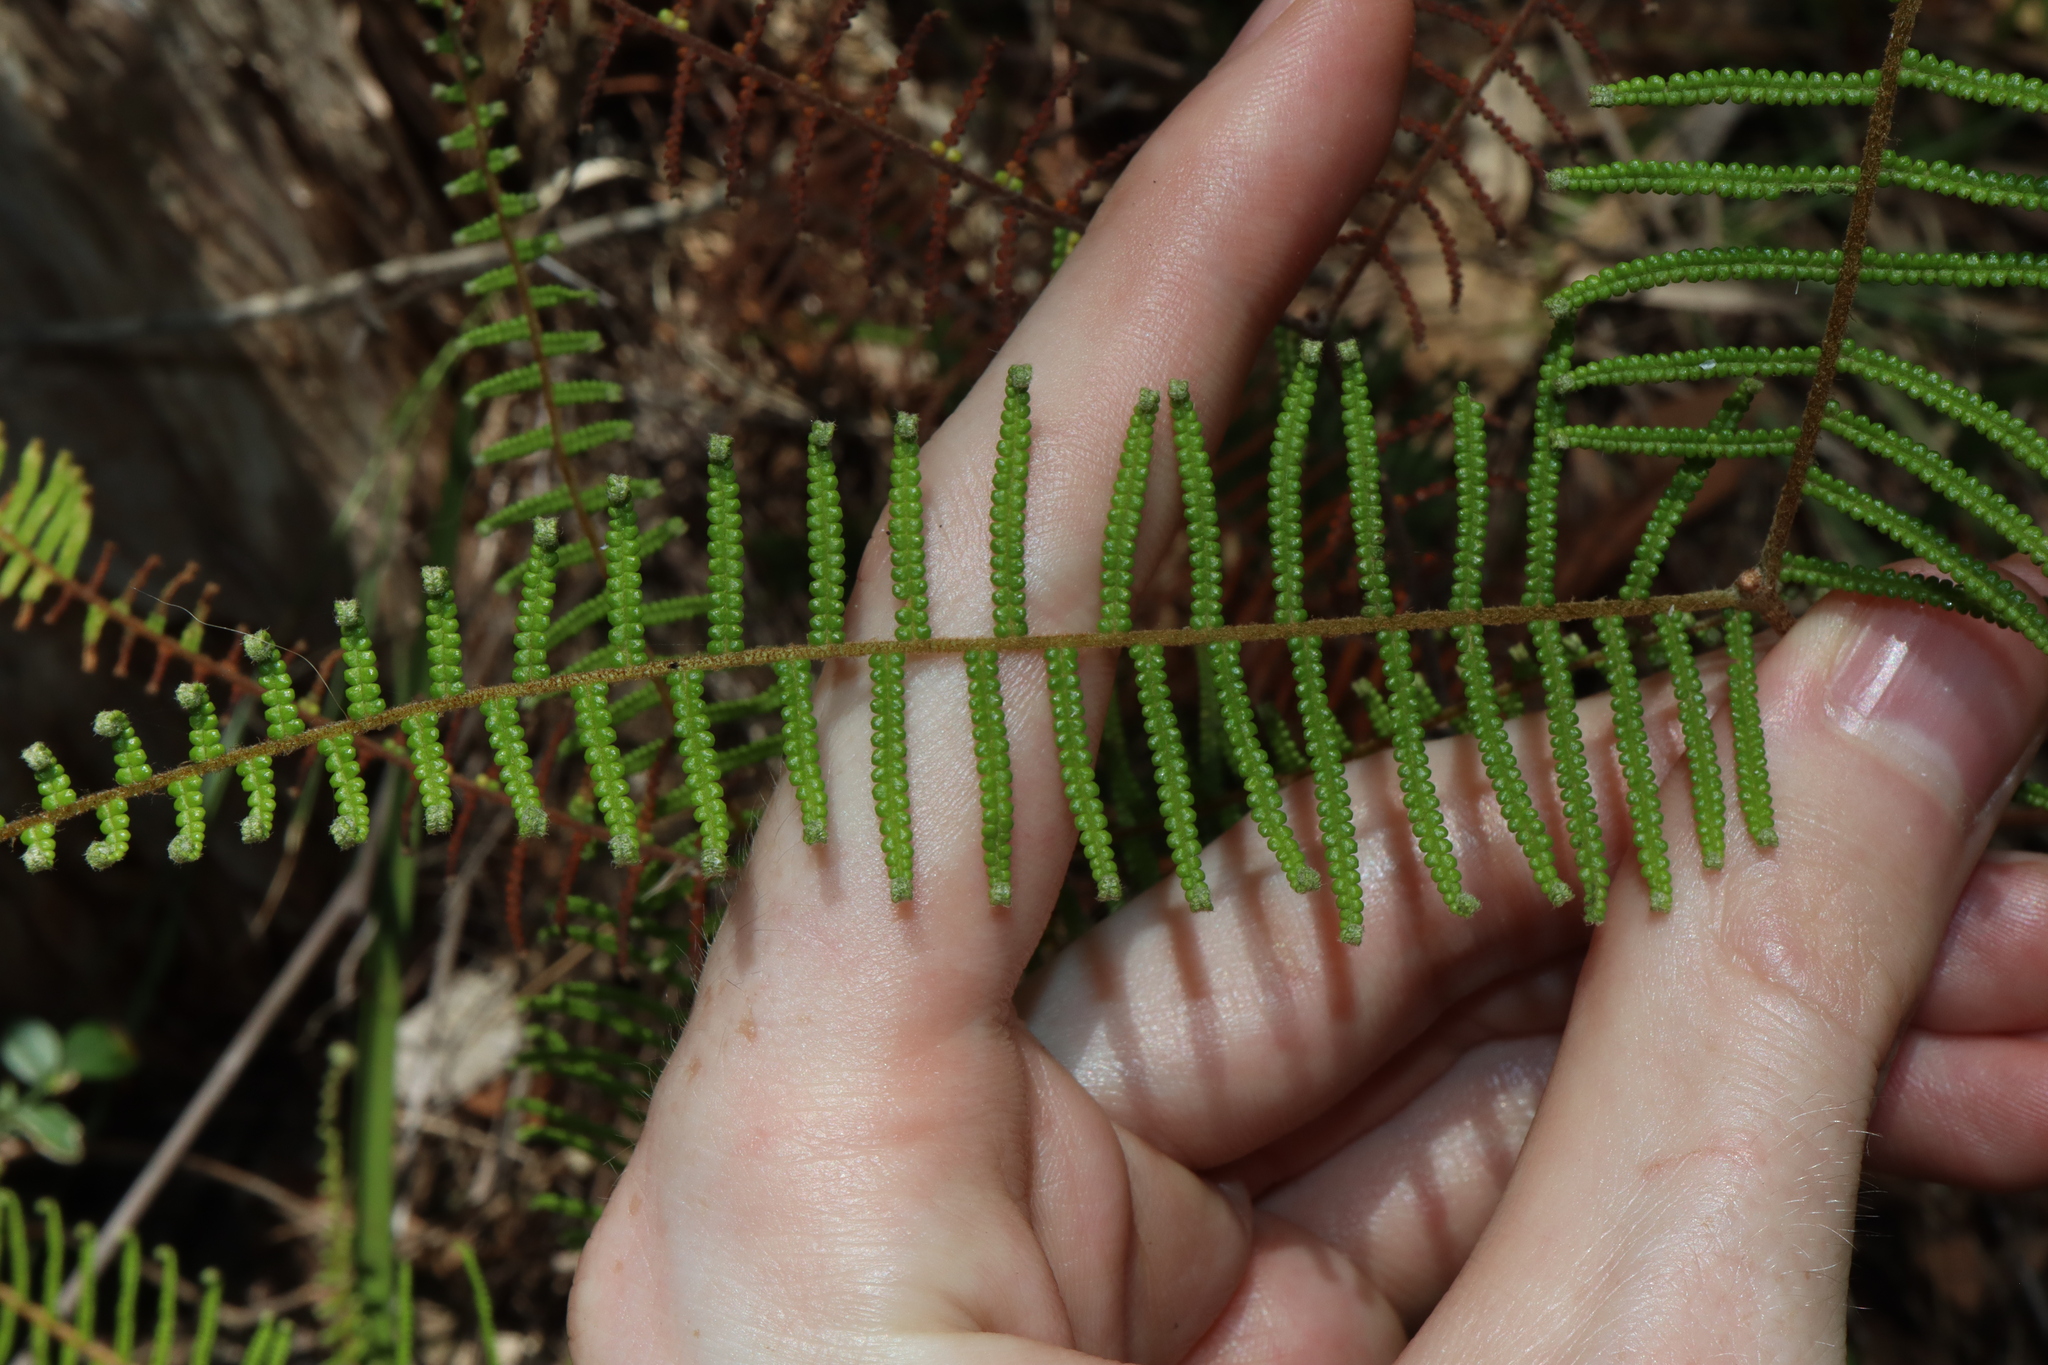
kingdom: Plantae
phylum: Tracheophyta
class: Polypodiopsida
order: Gleicheniales
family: Gleicheniaceae
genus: Gleichenia
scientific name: Gleichenia dicarpa
